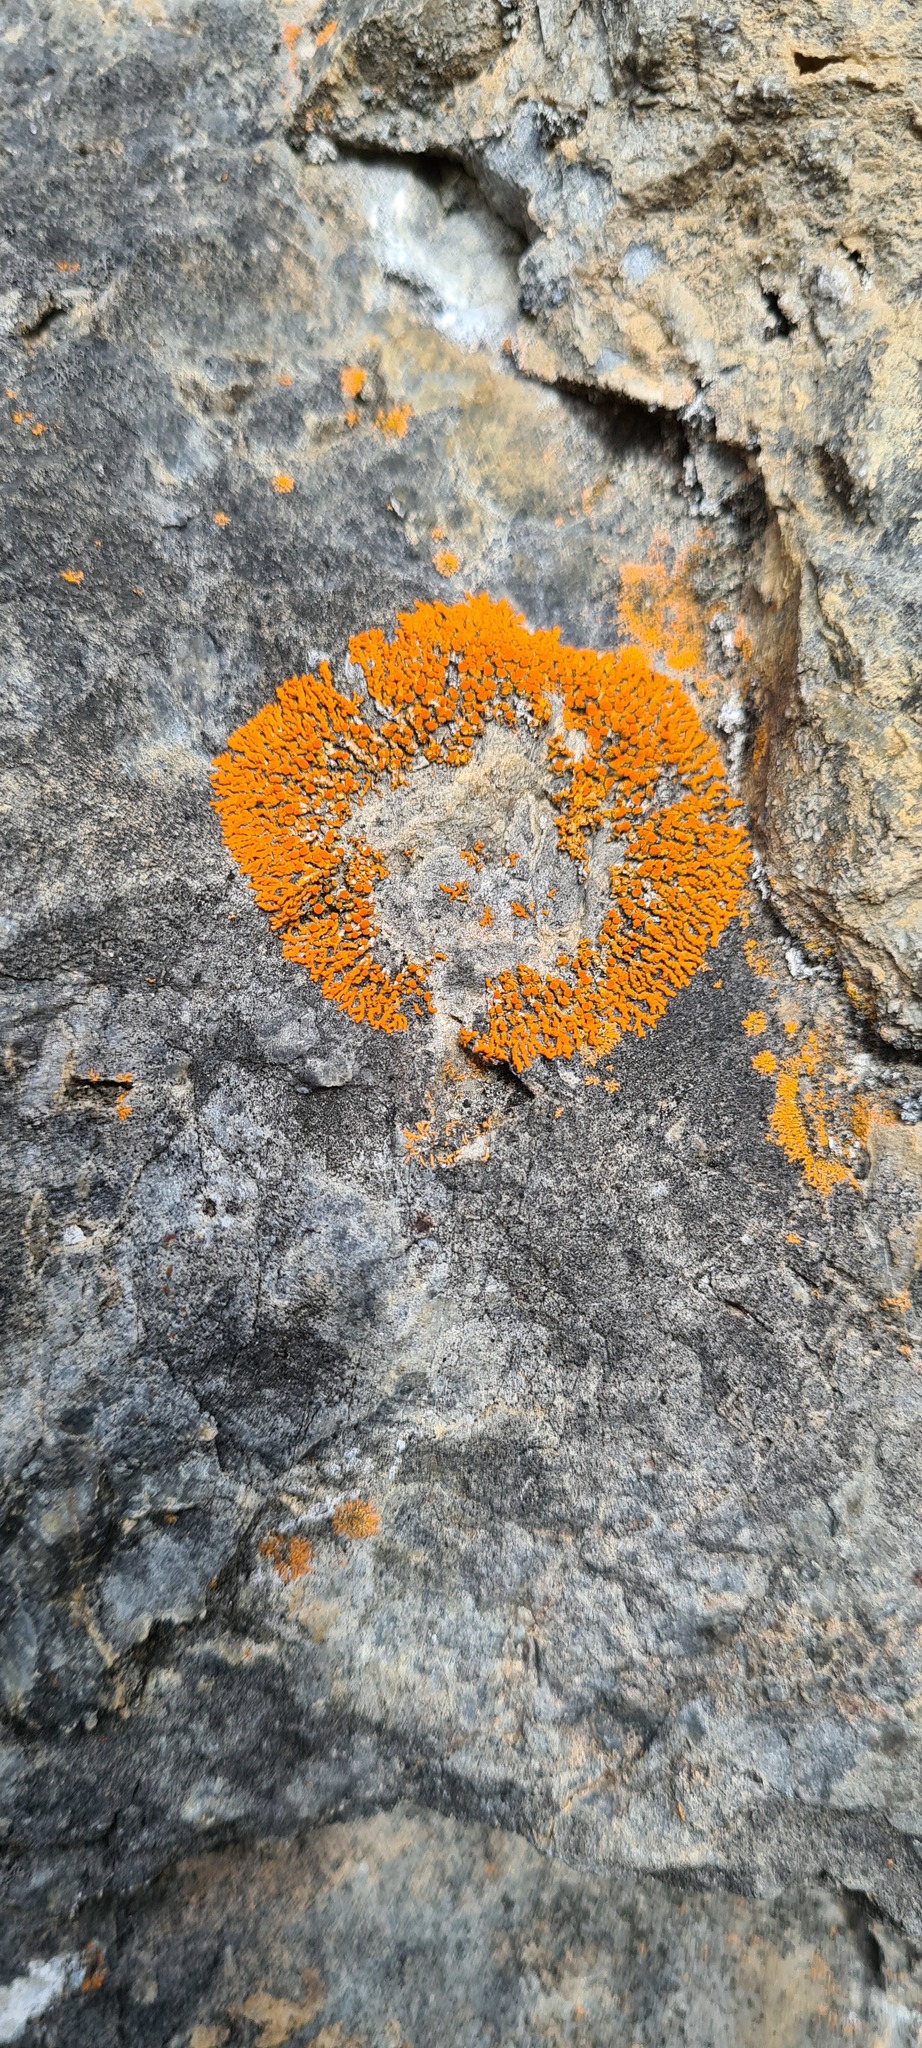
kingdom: Fungi
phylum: Ascomycota
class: Lecanoromycetes
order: Teloschistales
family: Teloschistaceae
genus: Xanthoria
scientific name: Xanthoria elegans
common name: Elegant sunburst lichen
